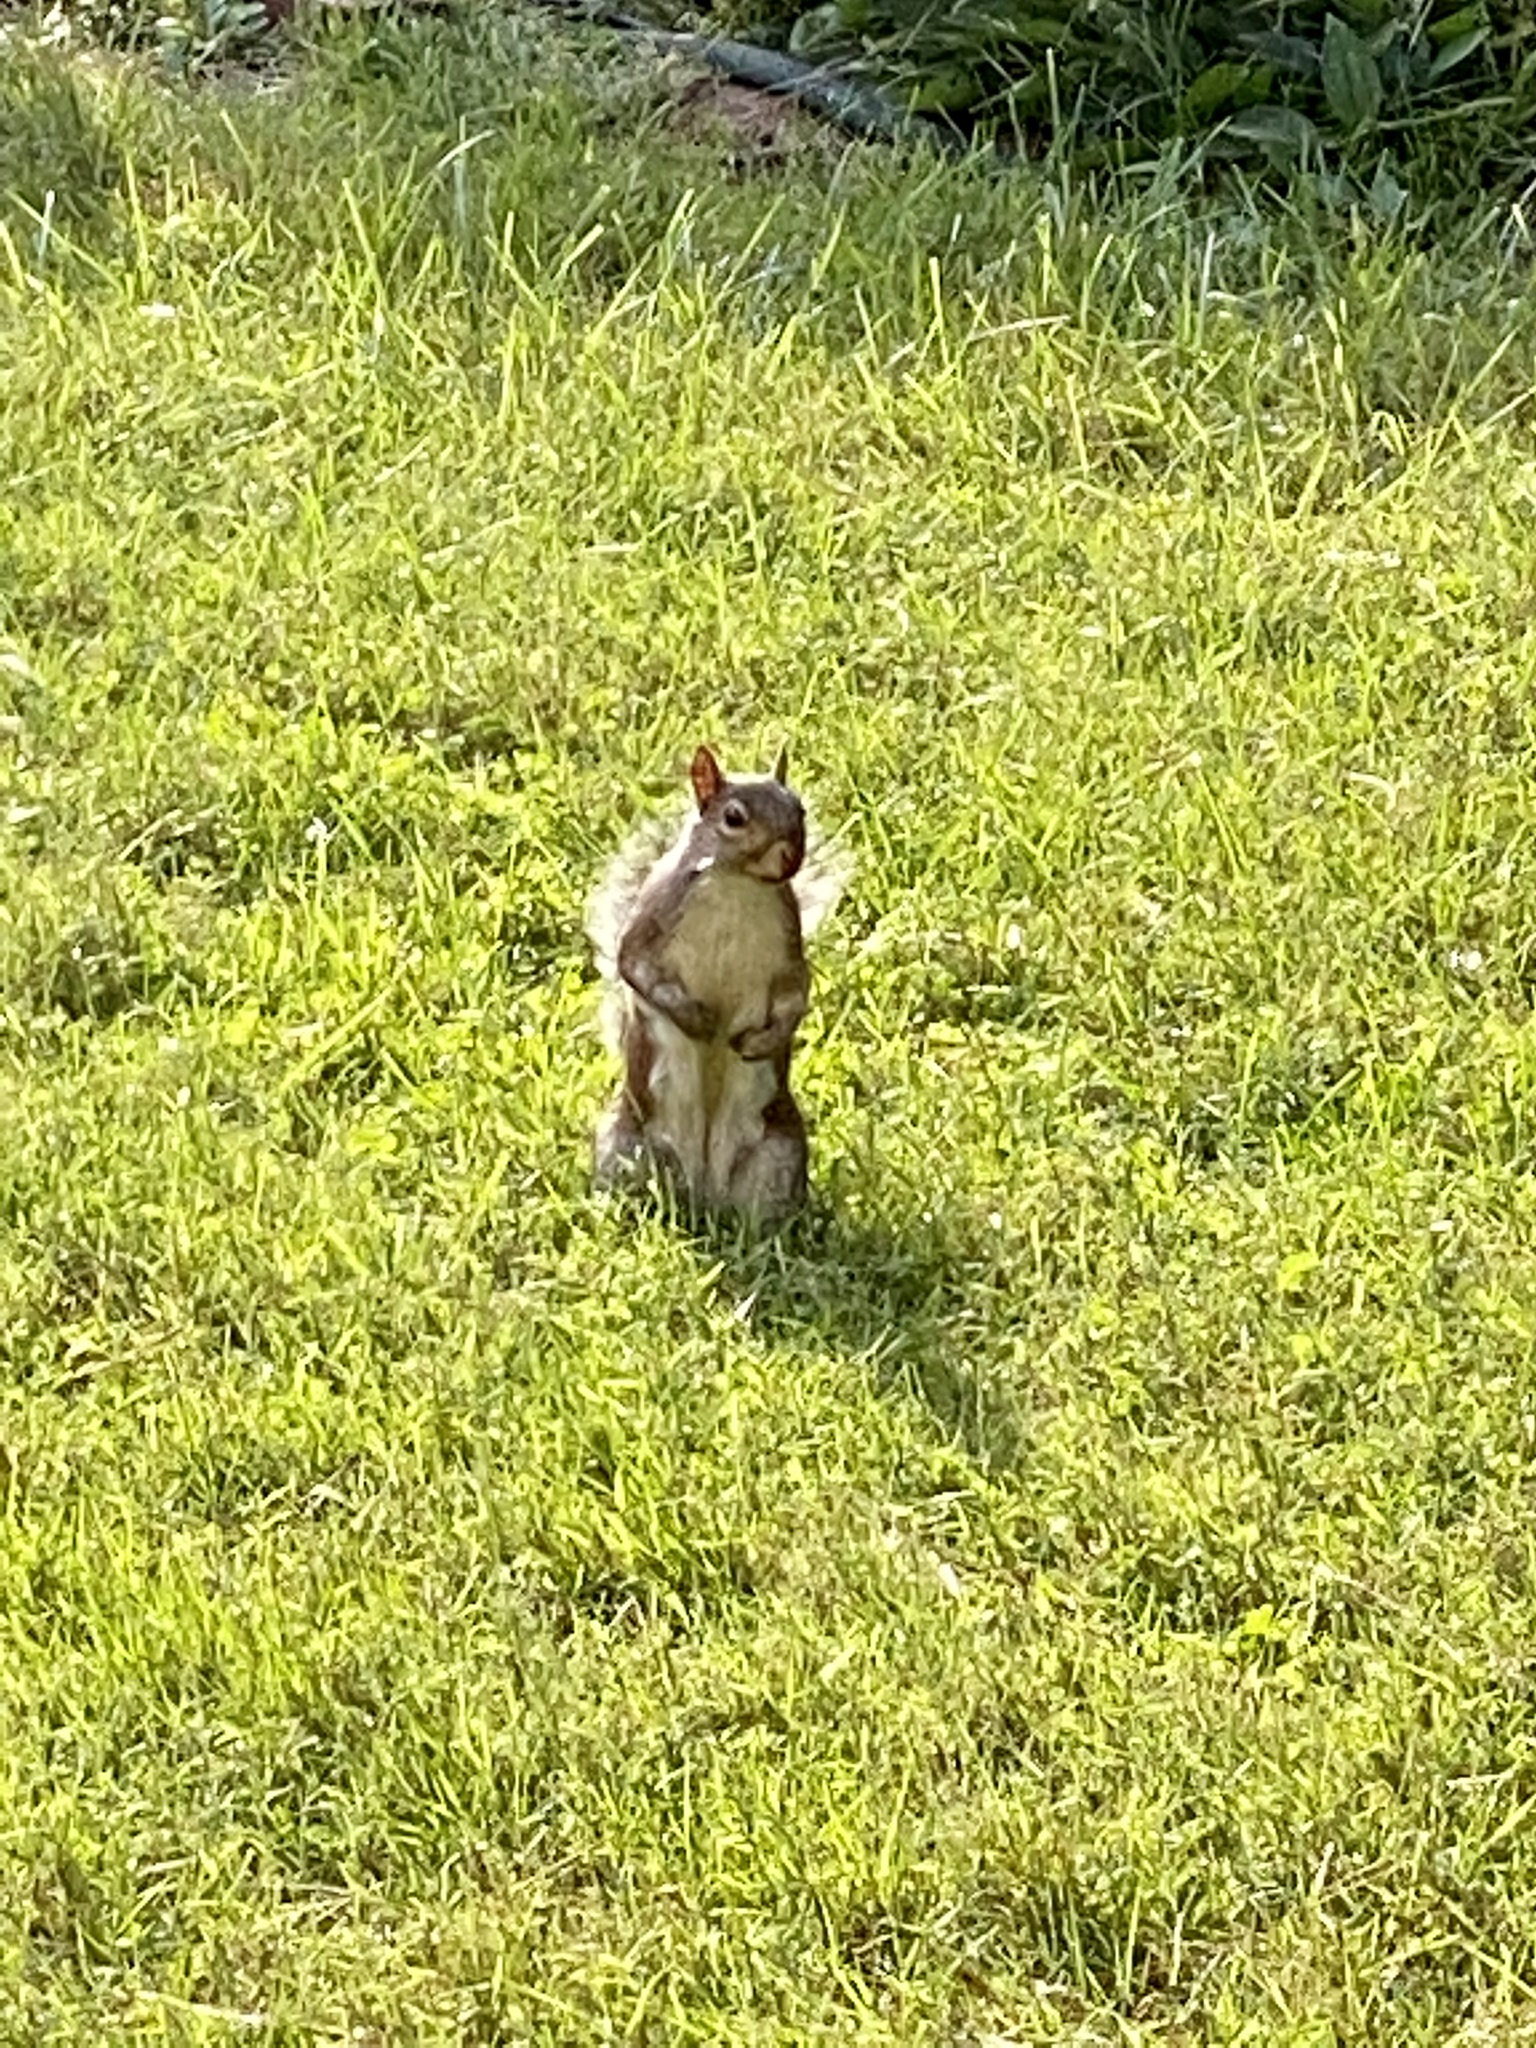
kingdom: Animalia
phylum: Chordata
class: Mammalia
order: Rodentia
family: Sciuridae
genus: Sciurus
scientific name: Sciurus carolinensis
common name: Eastern gray squirrel
